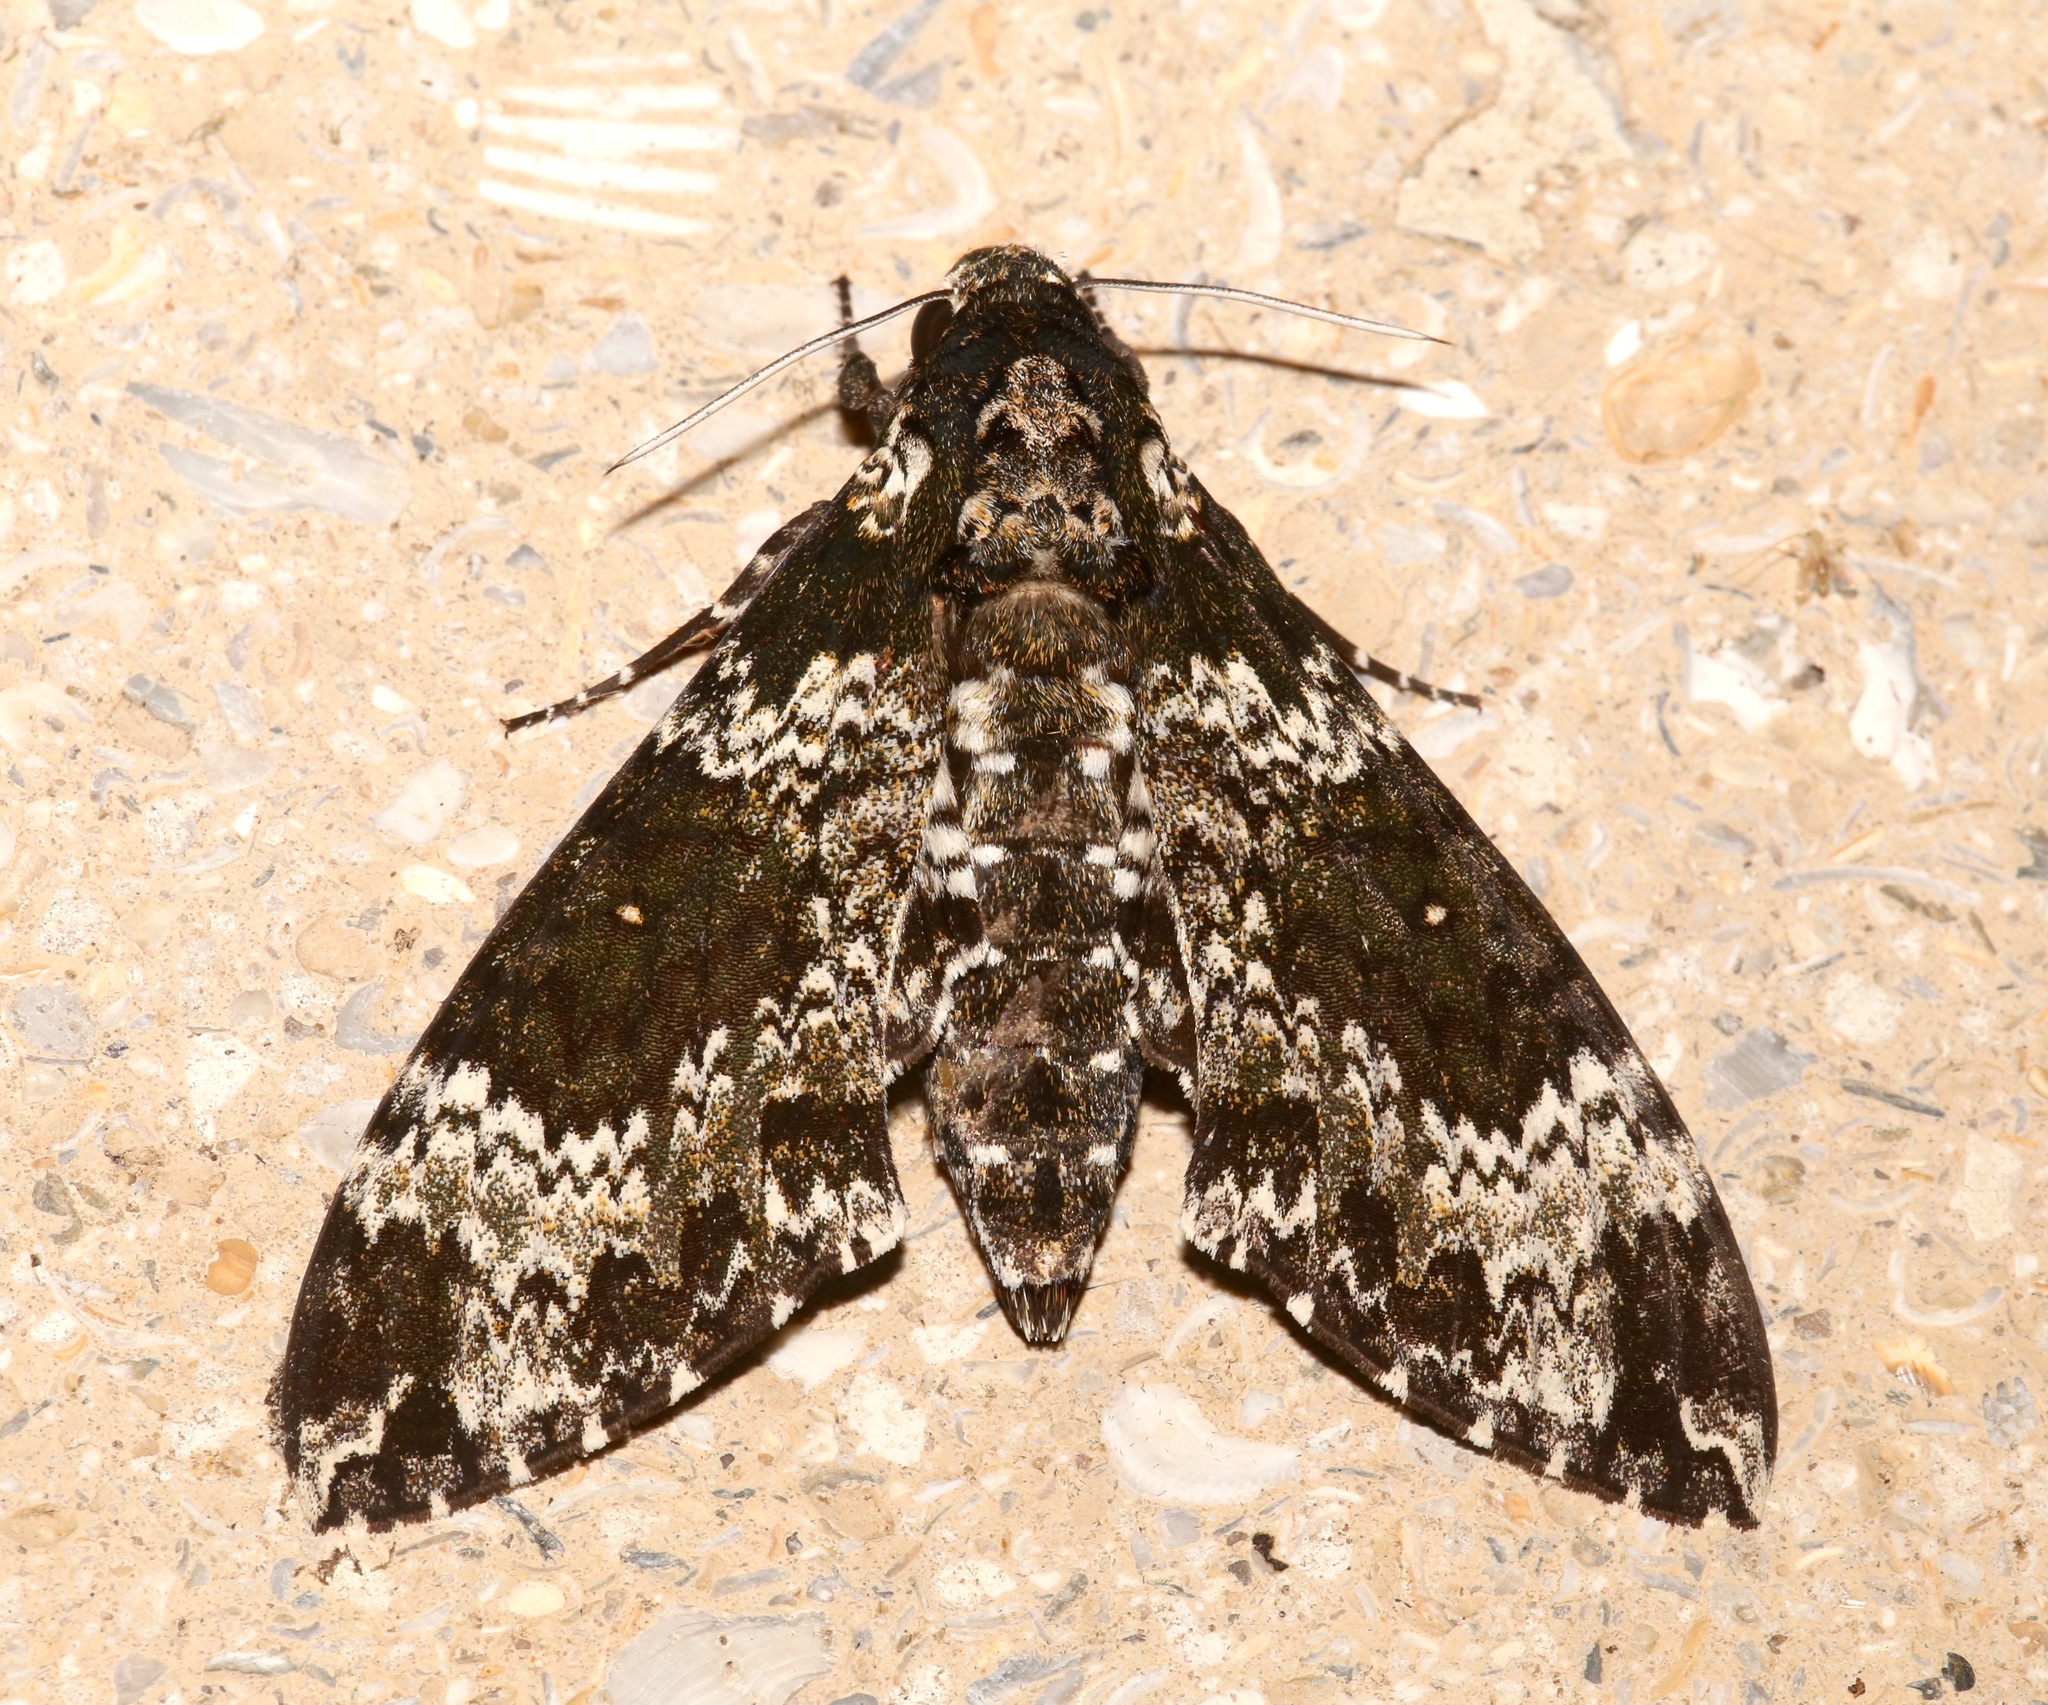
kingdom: Animalia
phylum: Arthropoda
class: Insecta
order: Lepidoptera
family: Sphingidae
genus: Manduca
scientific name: Manduca rustica
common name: Rustic sphinx
